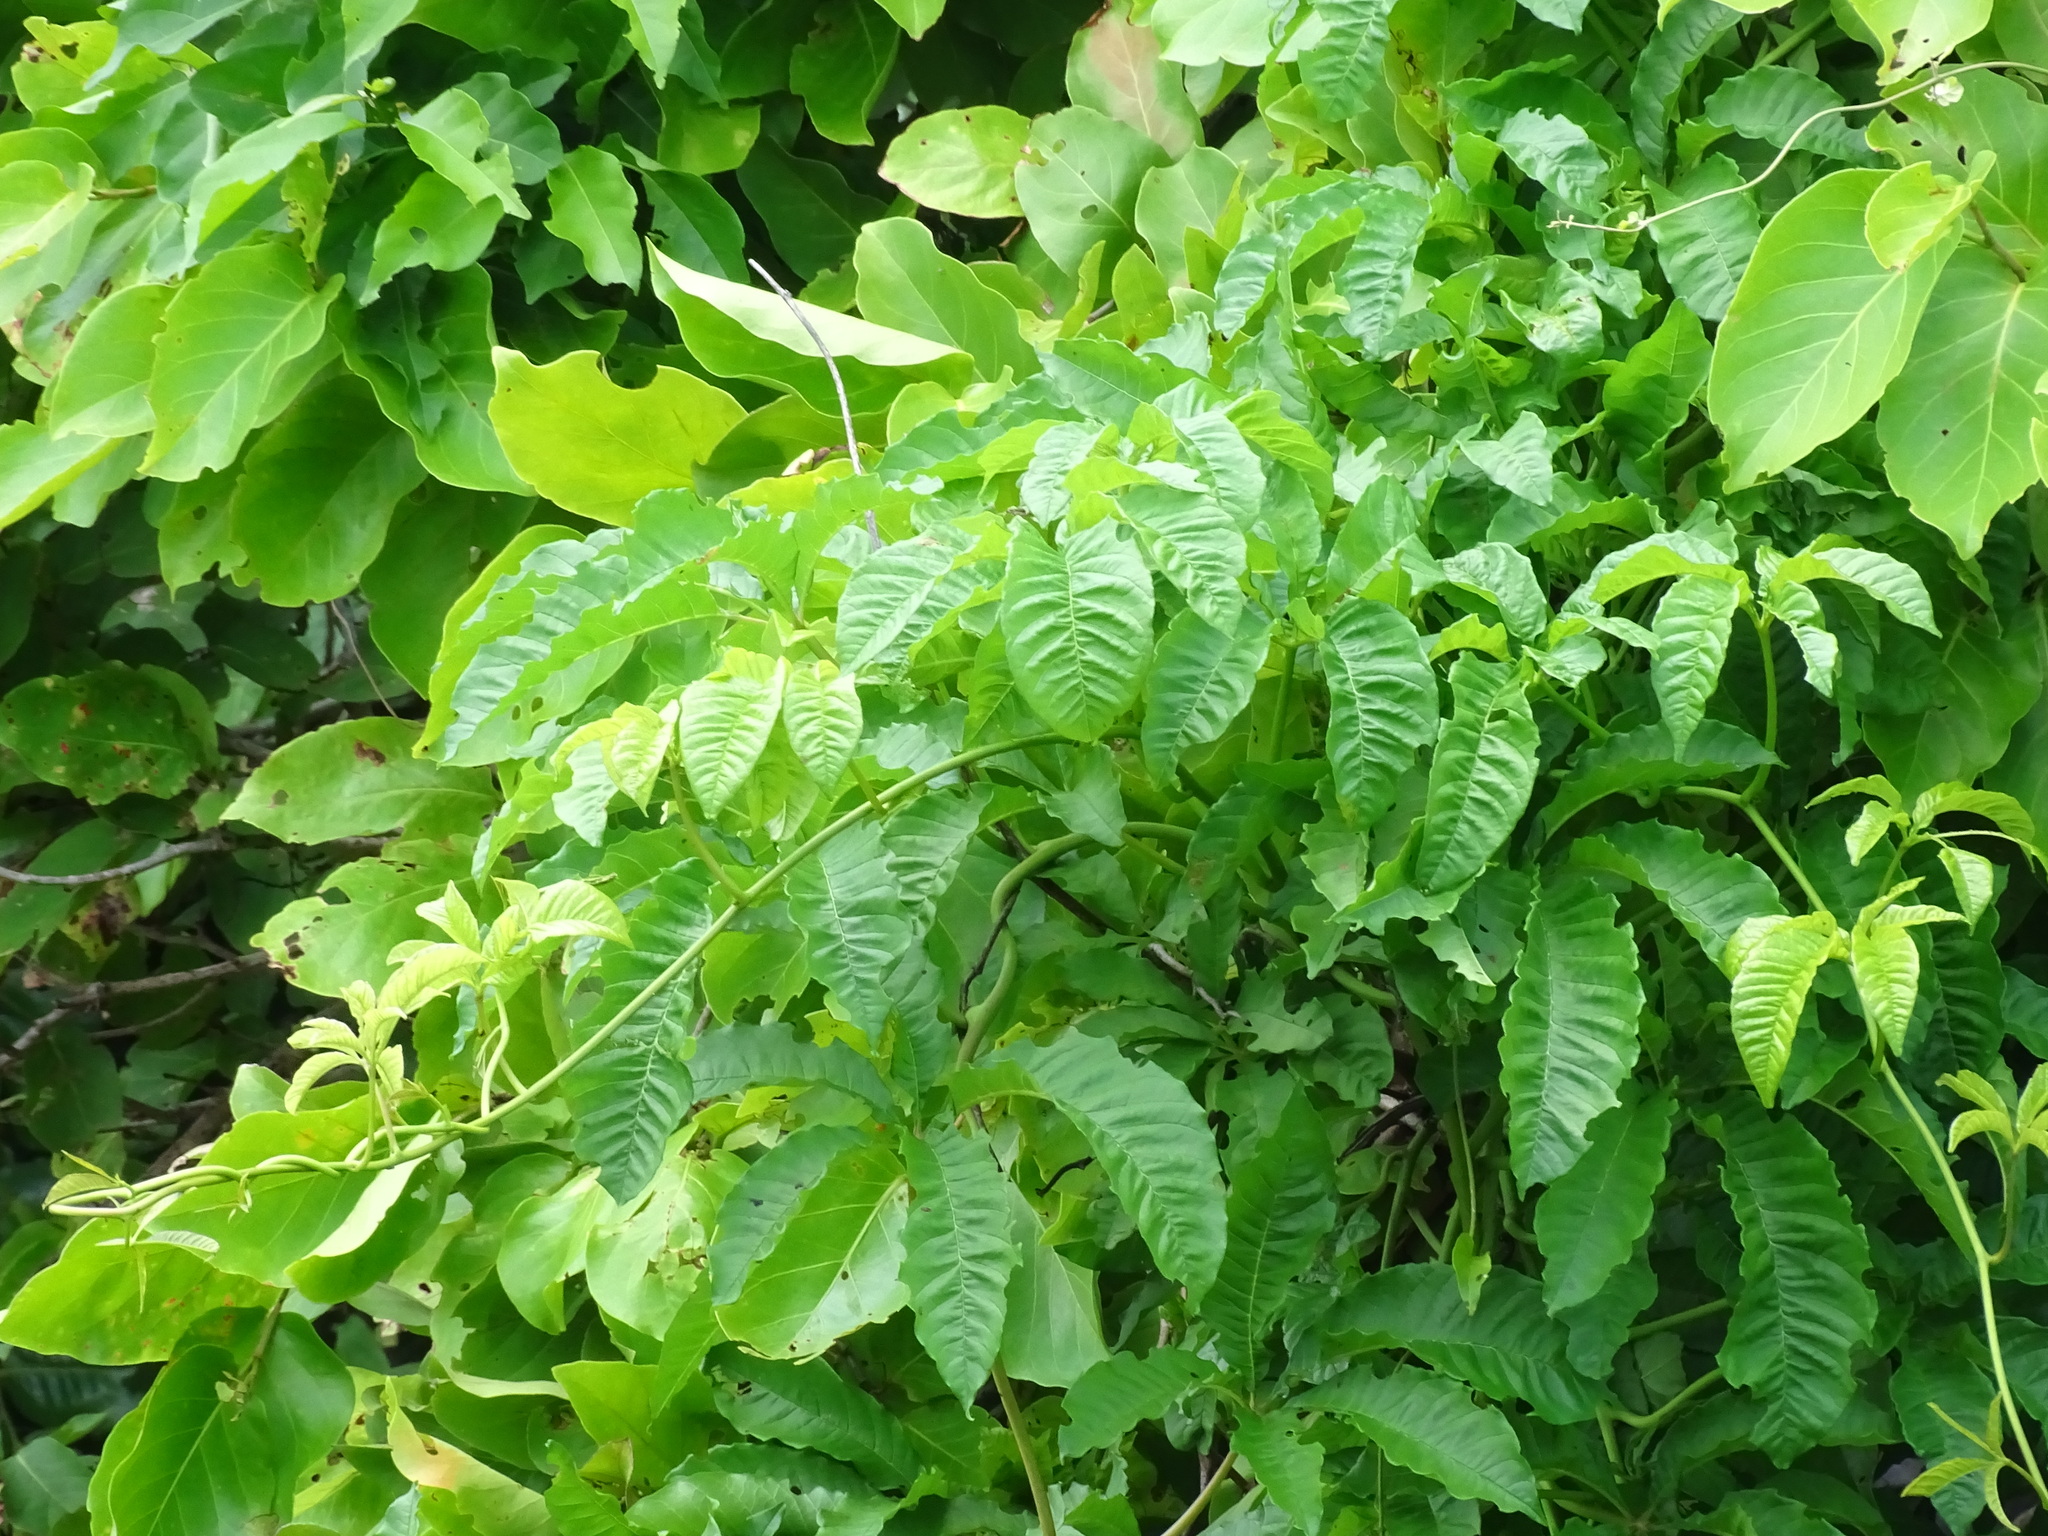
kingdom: Plantae
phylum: Tracheophyta
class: Magnoliopsida
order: Solanales
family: Convolvulaceae
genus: Distimake
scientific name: Distimake tuberosus
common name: Spanish arborvine
